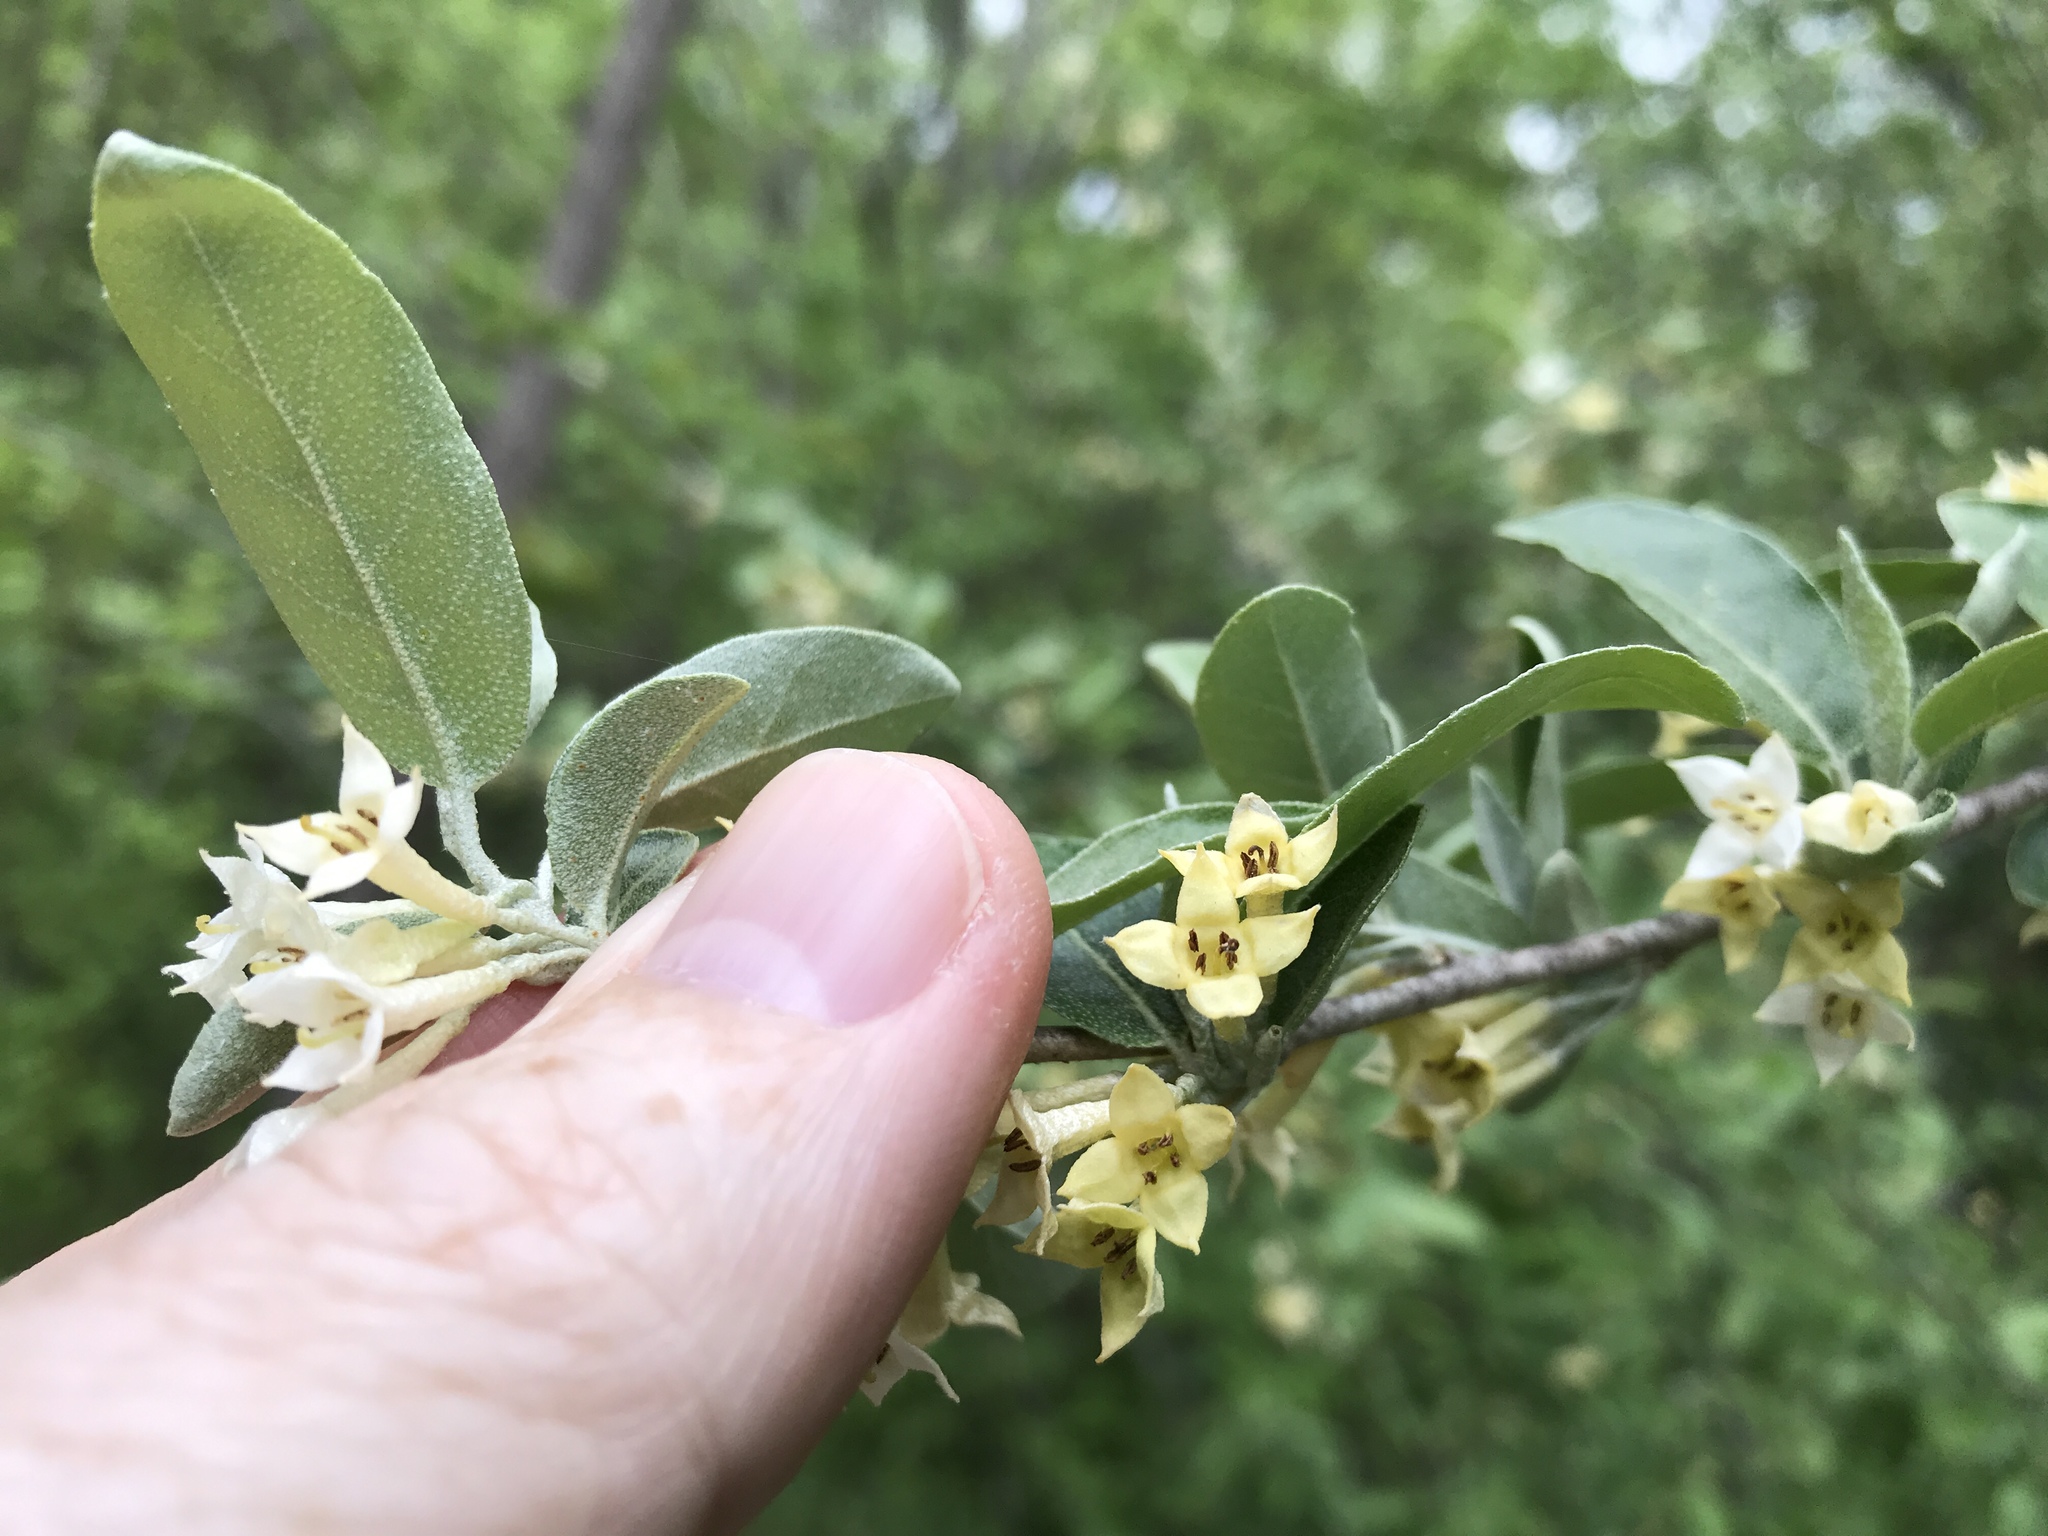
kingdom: Plantae
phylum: Tracheophyta
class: Magnoliopsida
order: Rosales
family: Elaeagnaceae
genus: Elaeagnus
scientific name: Elaeagnus umbellata
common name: Autumn olive
